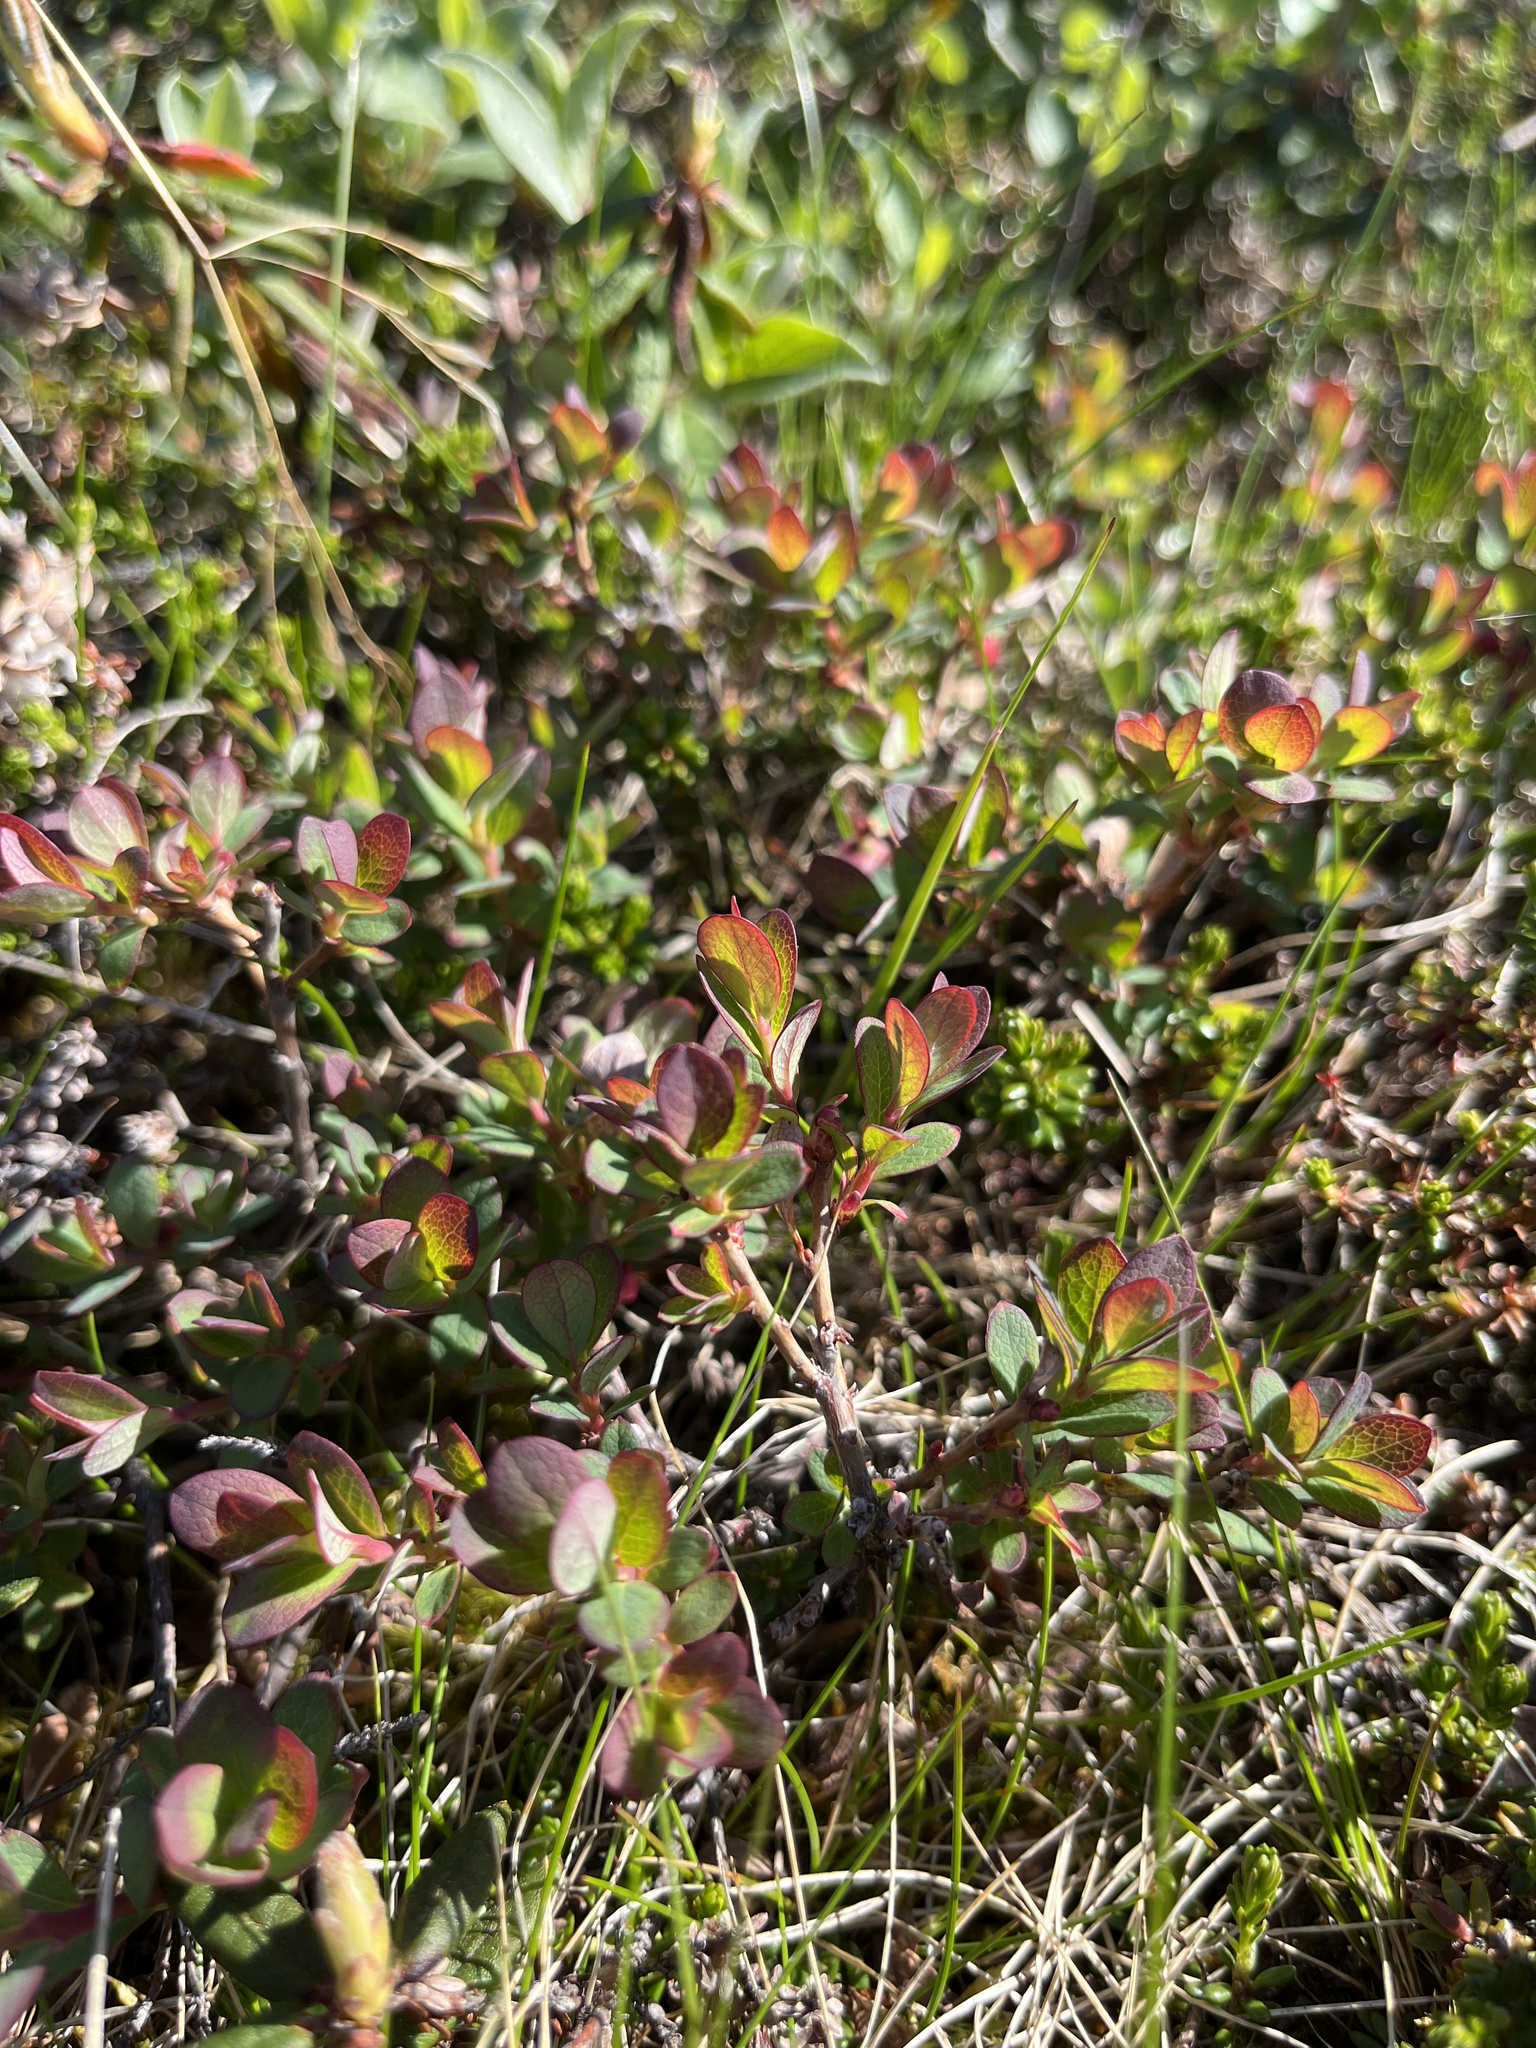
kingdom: Plantae
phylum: Tracheophyta
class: Magnoliopsida
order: Ericales
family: Ericaceae
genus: Vaccinium
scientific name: Vaccinium uliginosum
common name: Bog bilberry
